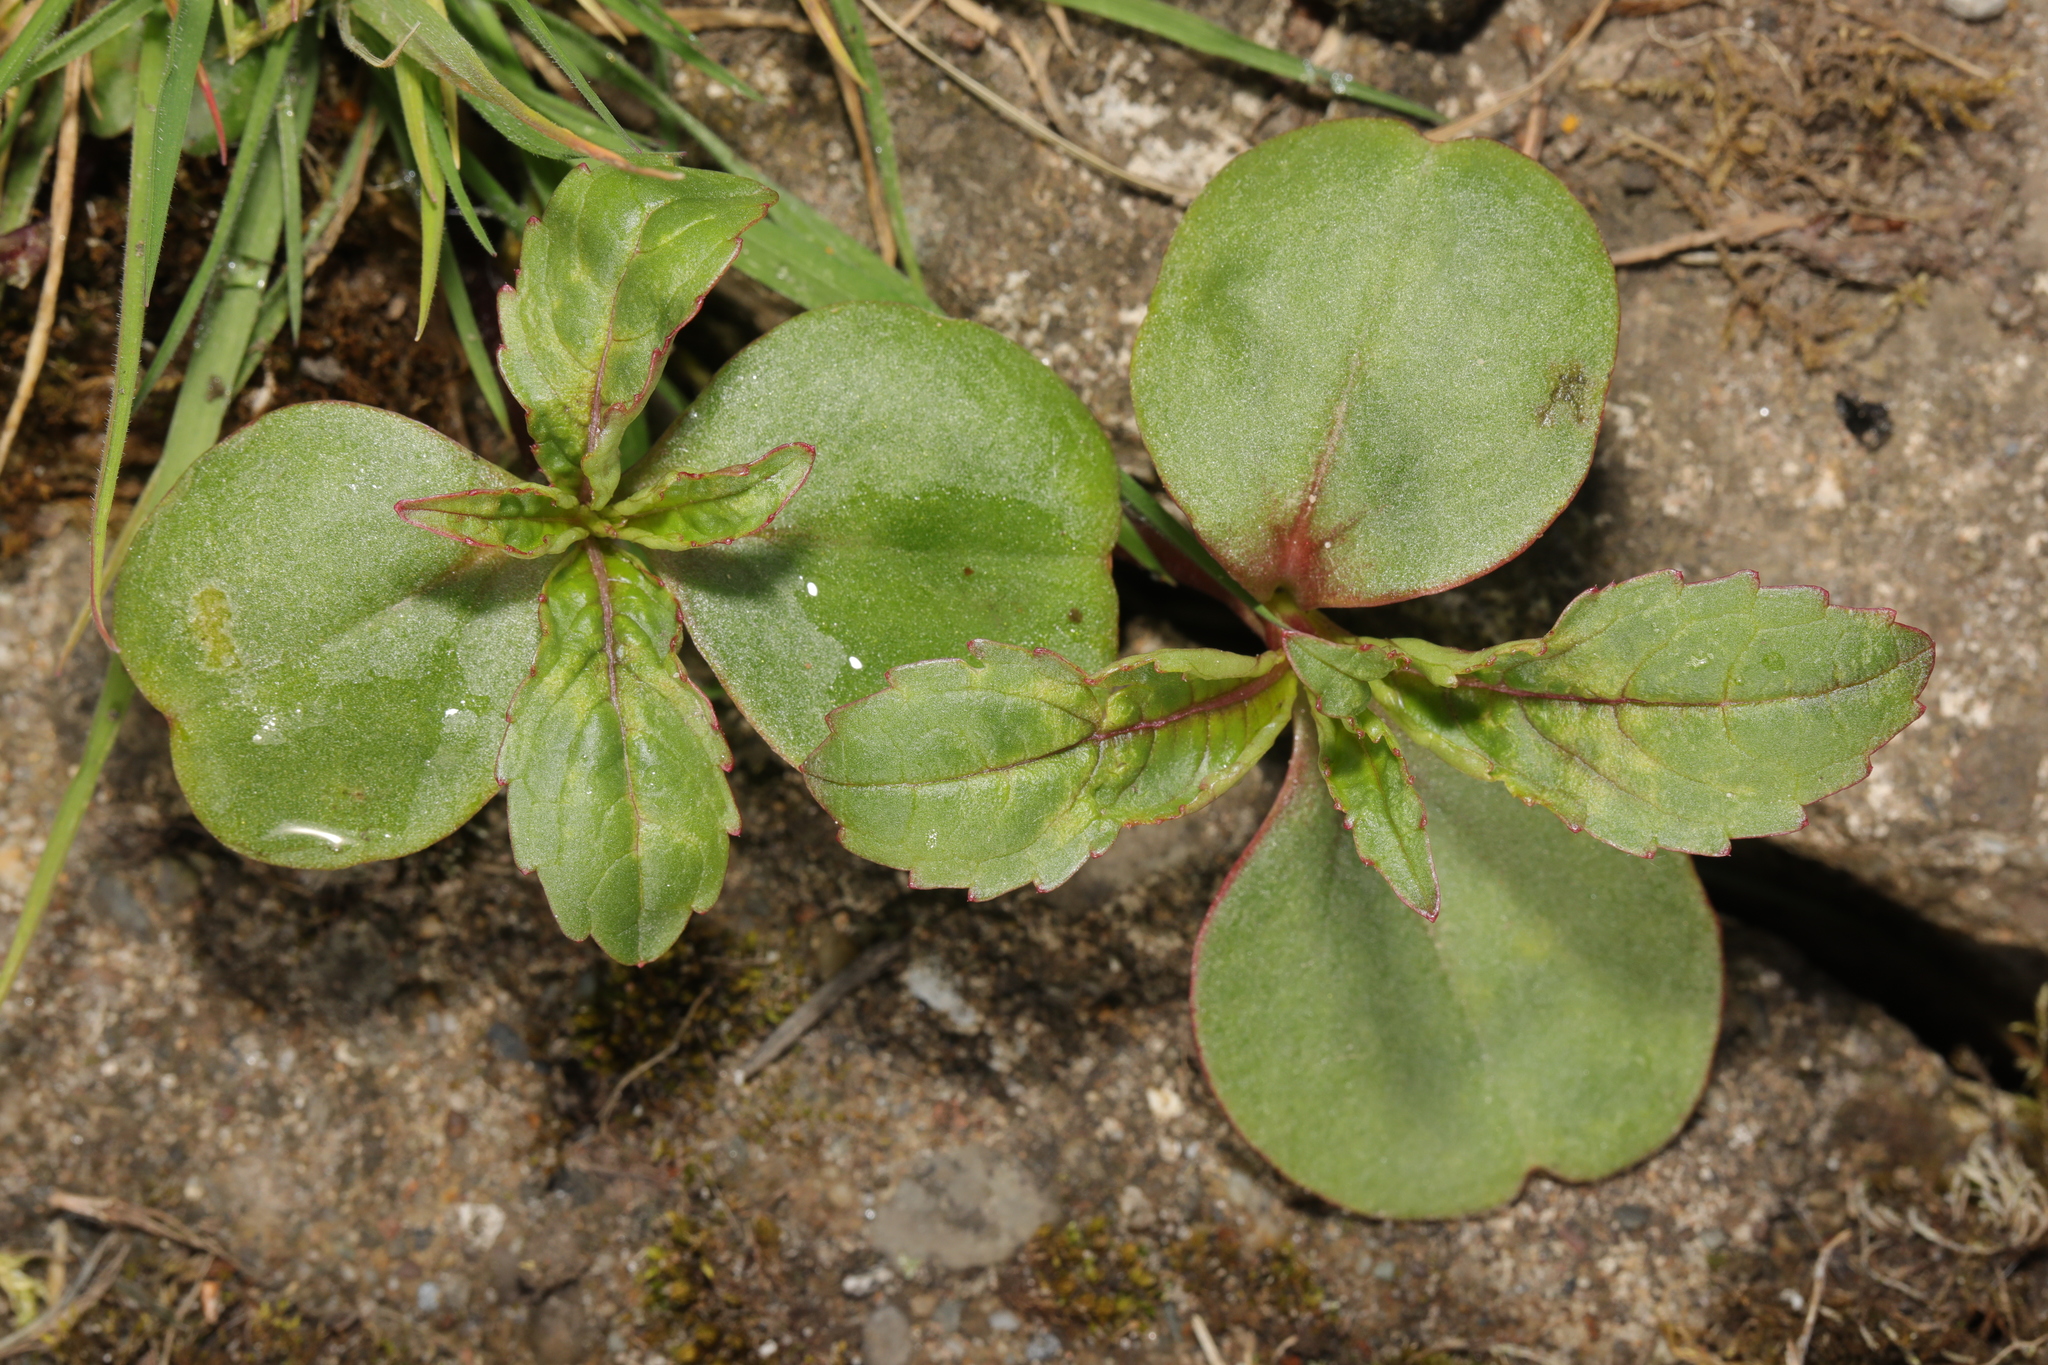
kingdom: Plantae
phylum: Tracheophyta
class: Magnoliopsida
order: Ericales
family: Balsaminaceae
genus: Impatiens
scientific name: Impatiens glandulifera
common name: Himalayan balsam
